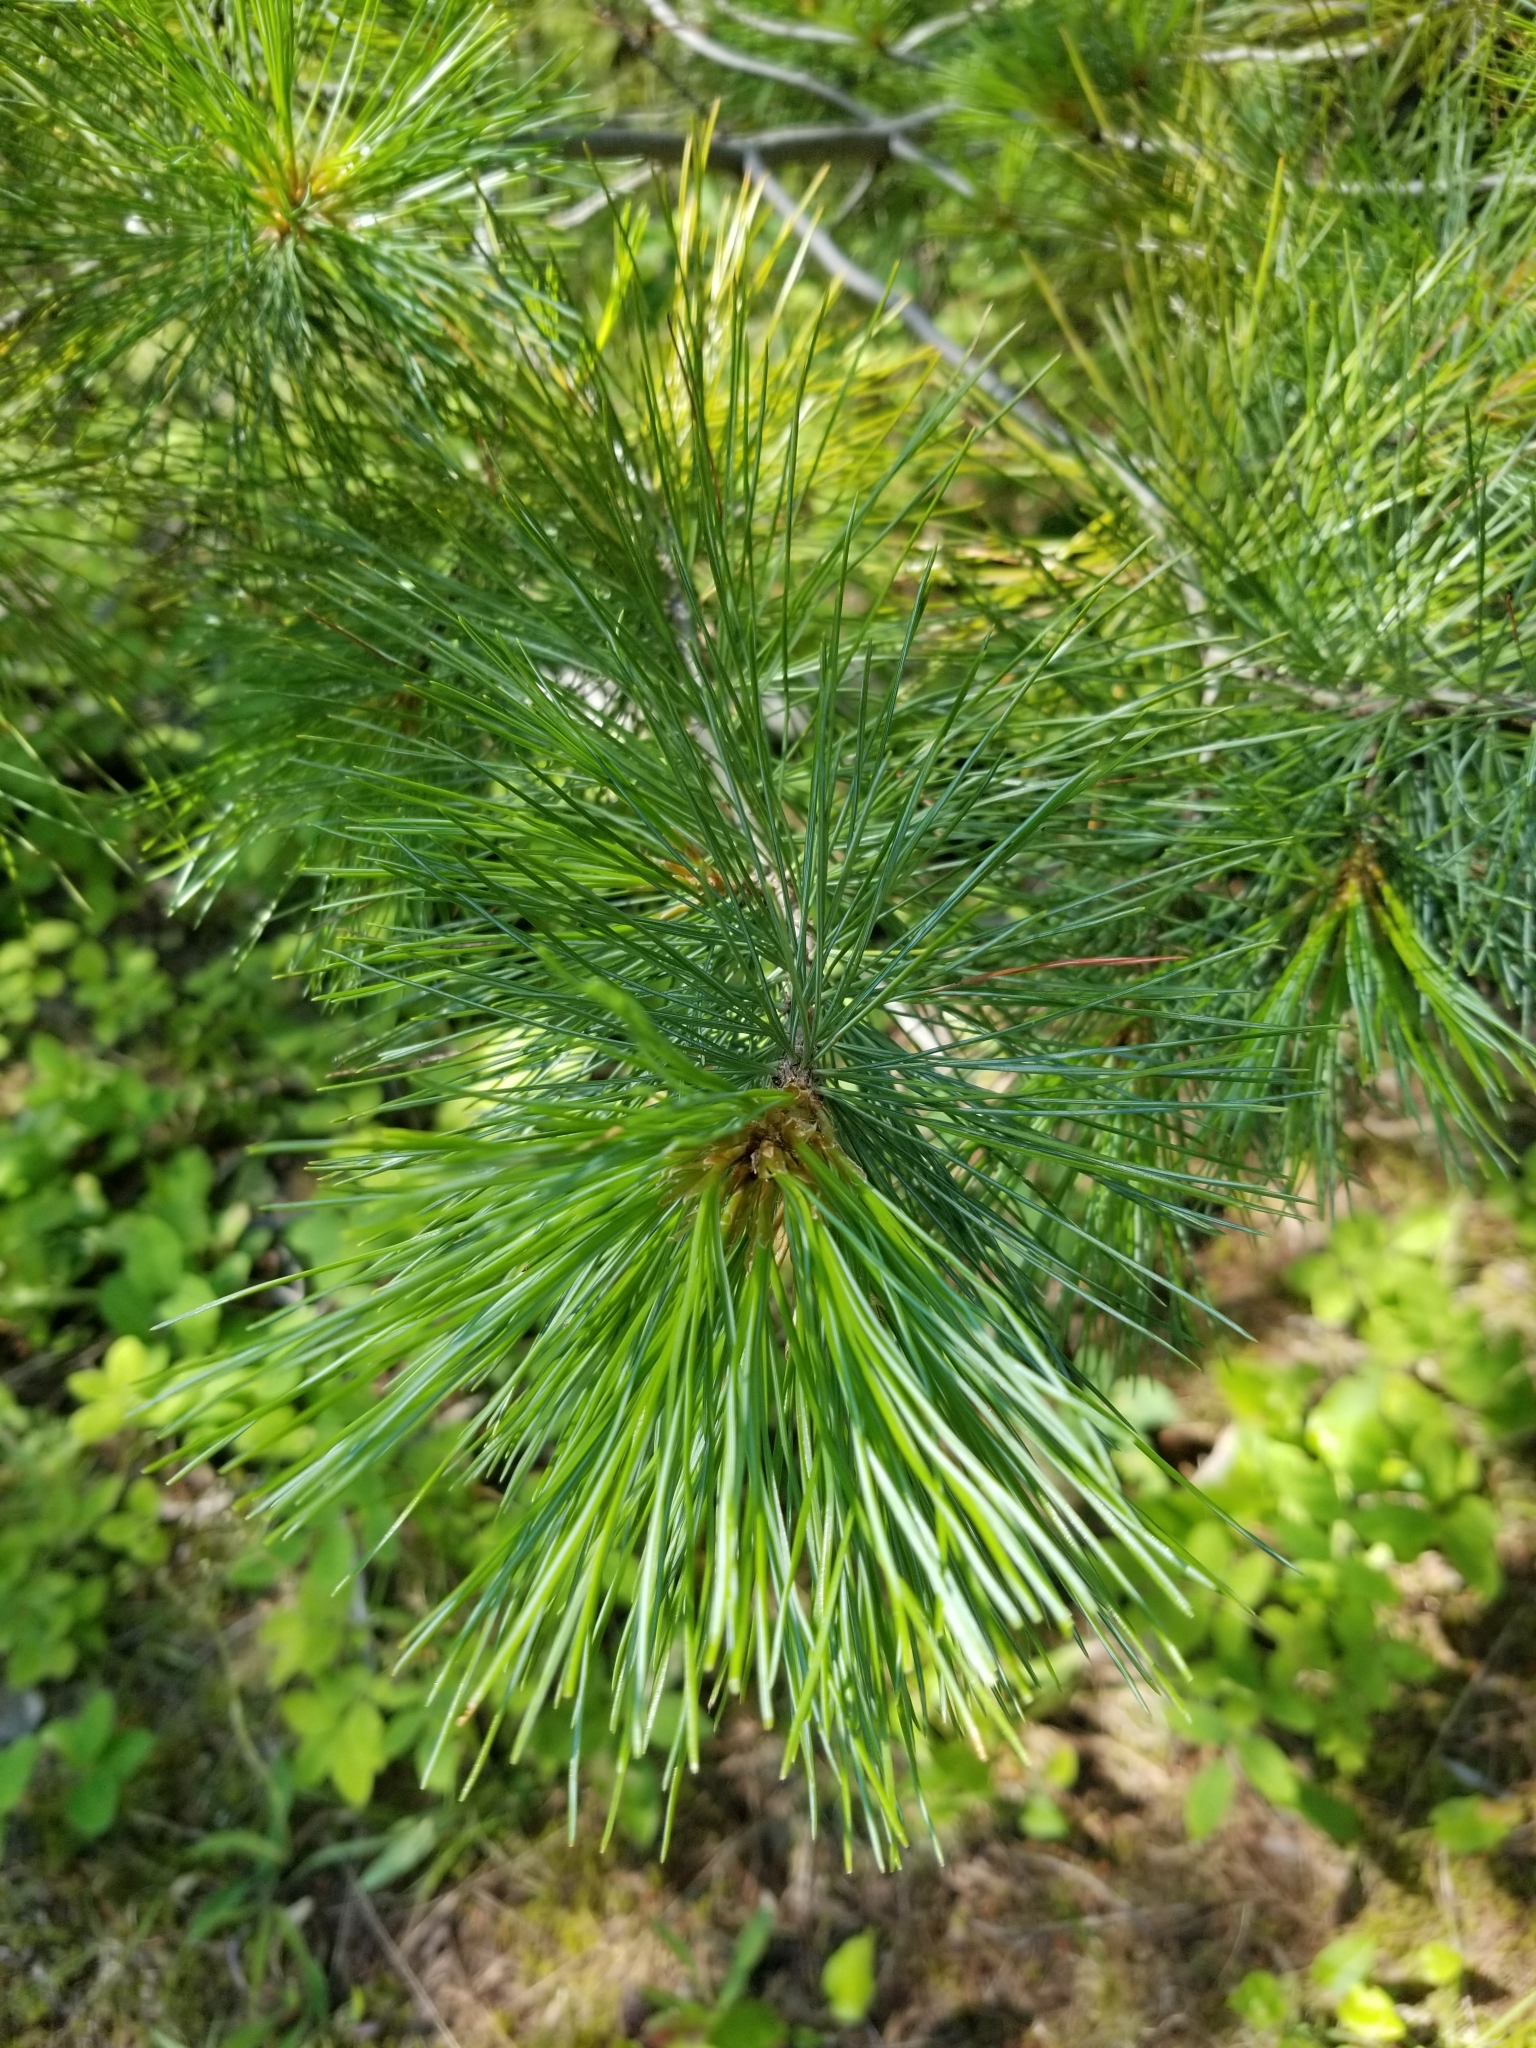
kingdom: Plantae
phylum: Tracheophyta
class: Pinopsida
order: Pinales
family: Pinaceae
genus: Pinus
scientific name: Pinus monticola
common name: Western white pine
